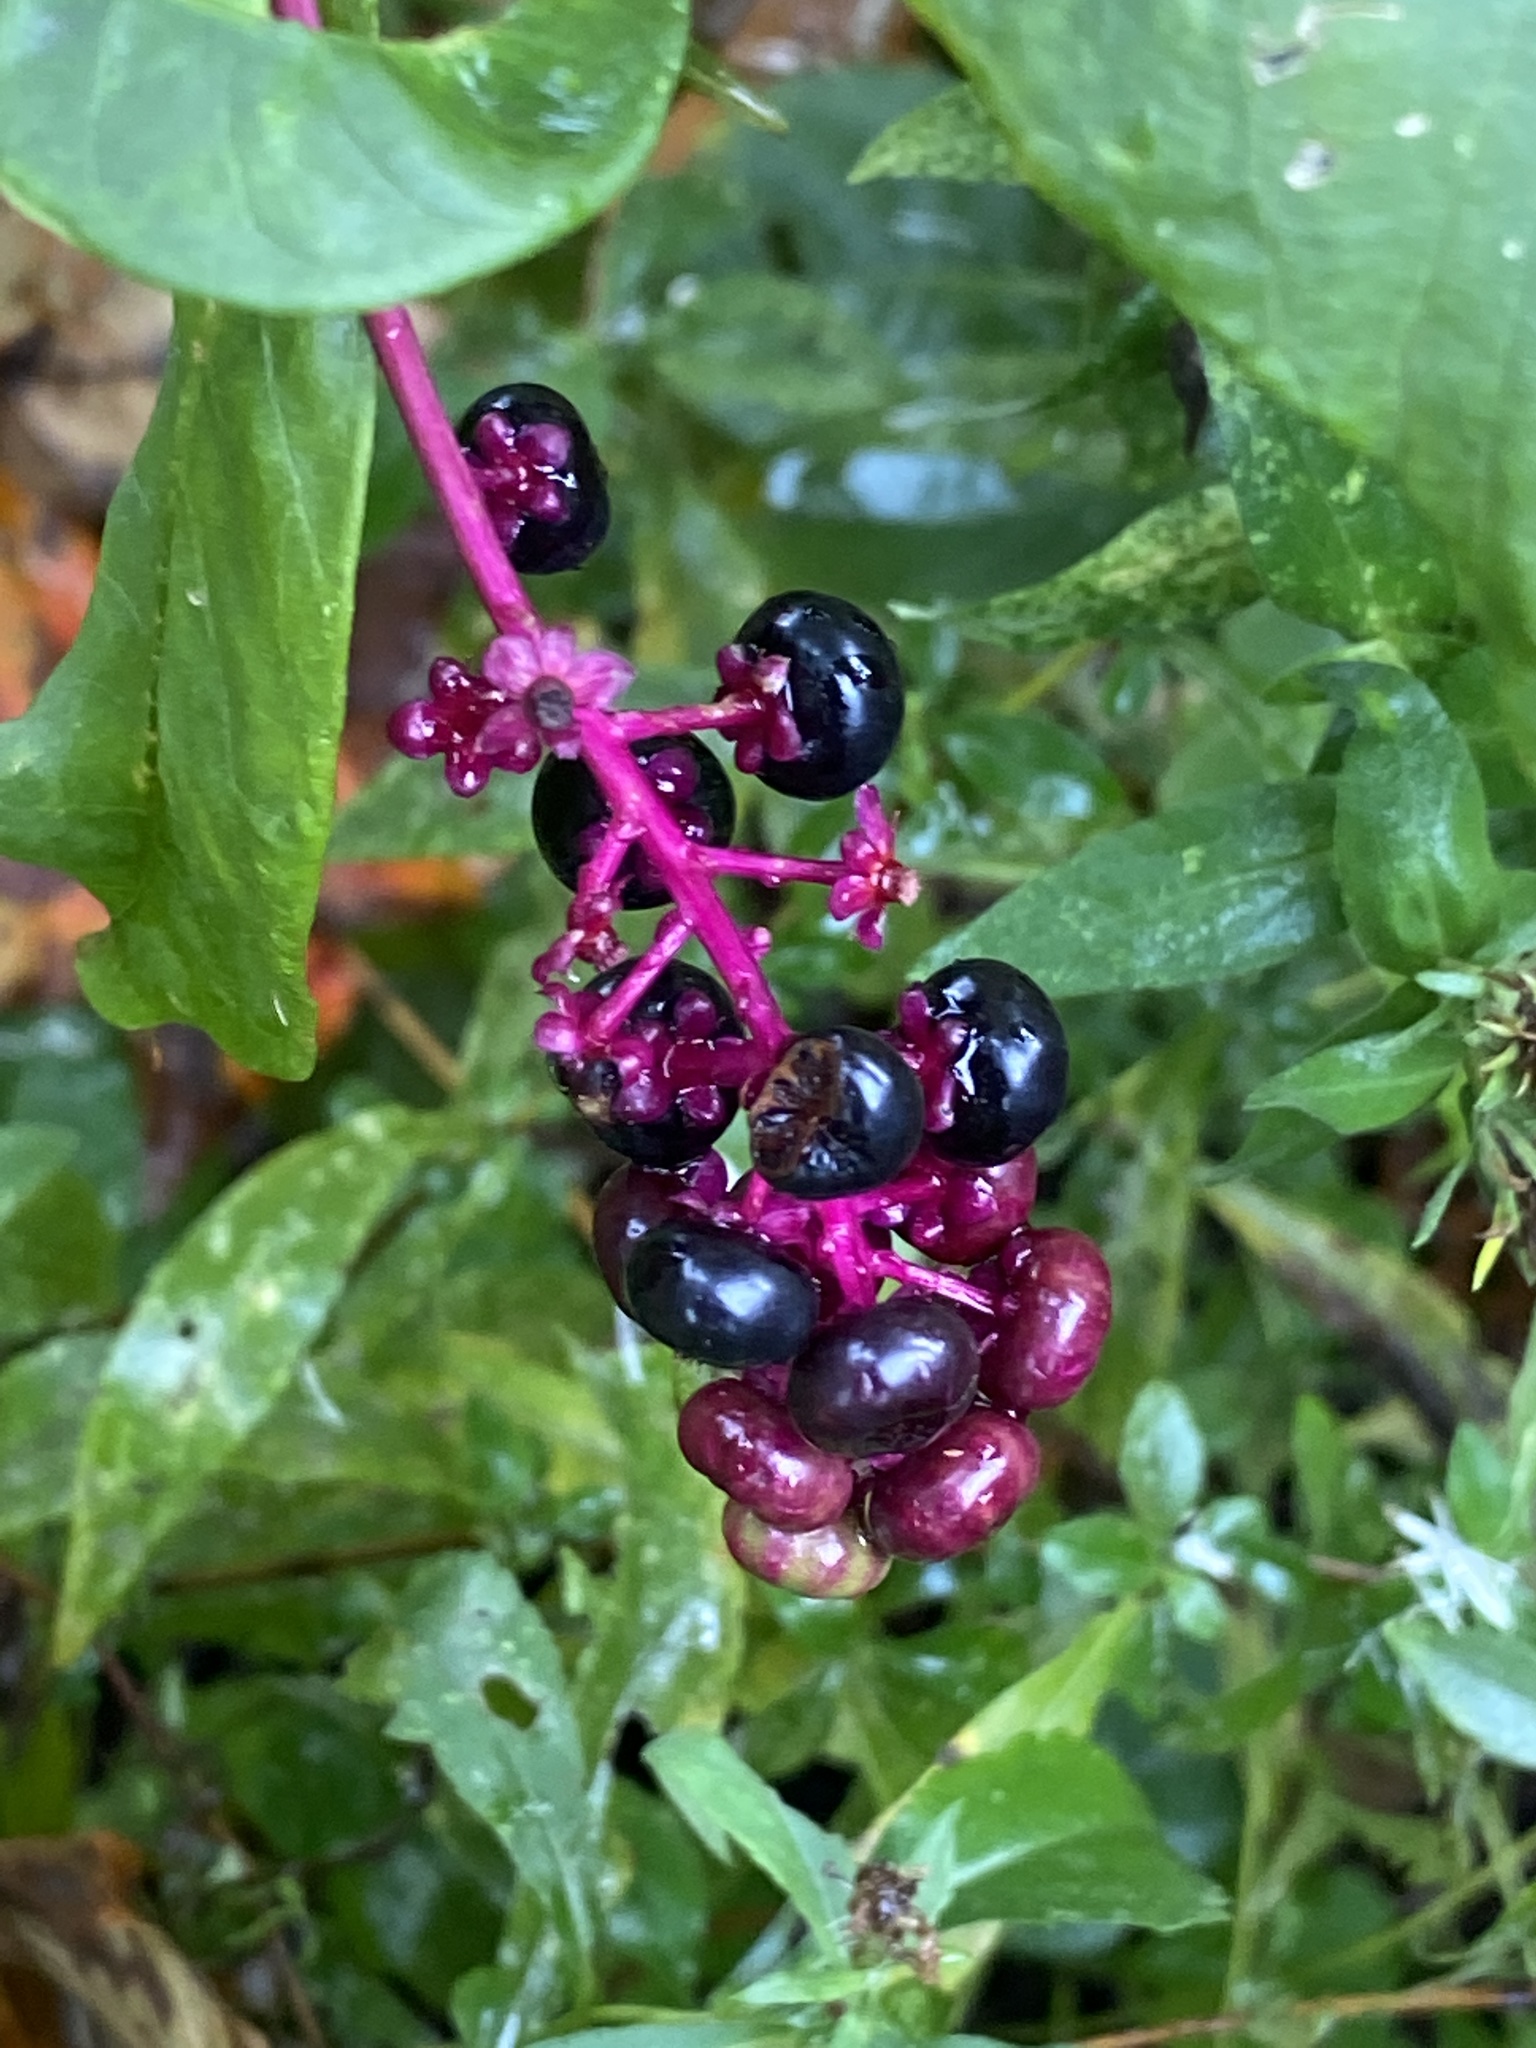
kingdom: Plantae
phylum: Tracheophyta
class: Magnoliopsida
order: Caryophyllales
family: Phytolaccaceae
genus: Phytolacca
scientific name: Phytolacca americana
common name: American pokeweed
